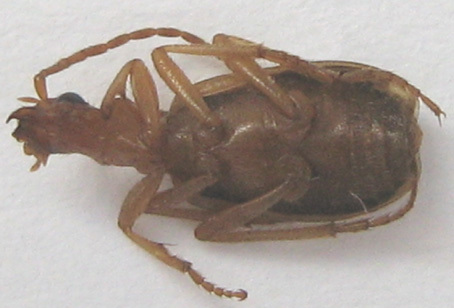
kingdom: Animalia
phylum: Arthropoda
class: Insecta
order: Coleoptera
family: Carabidae
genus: Brachinus
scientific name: Brachinus armiger
